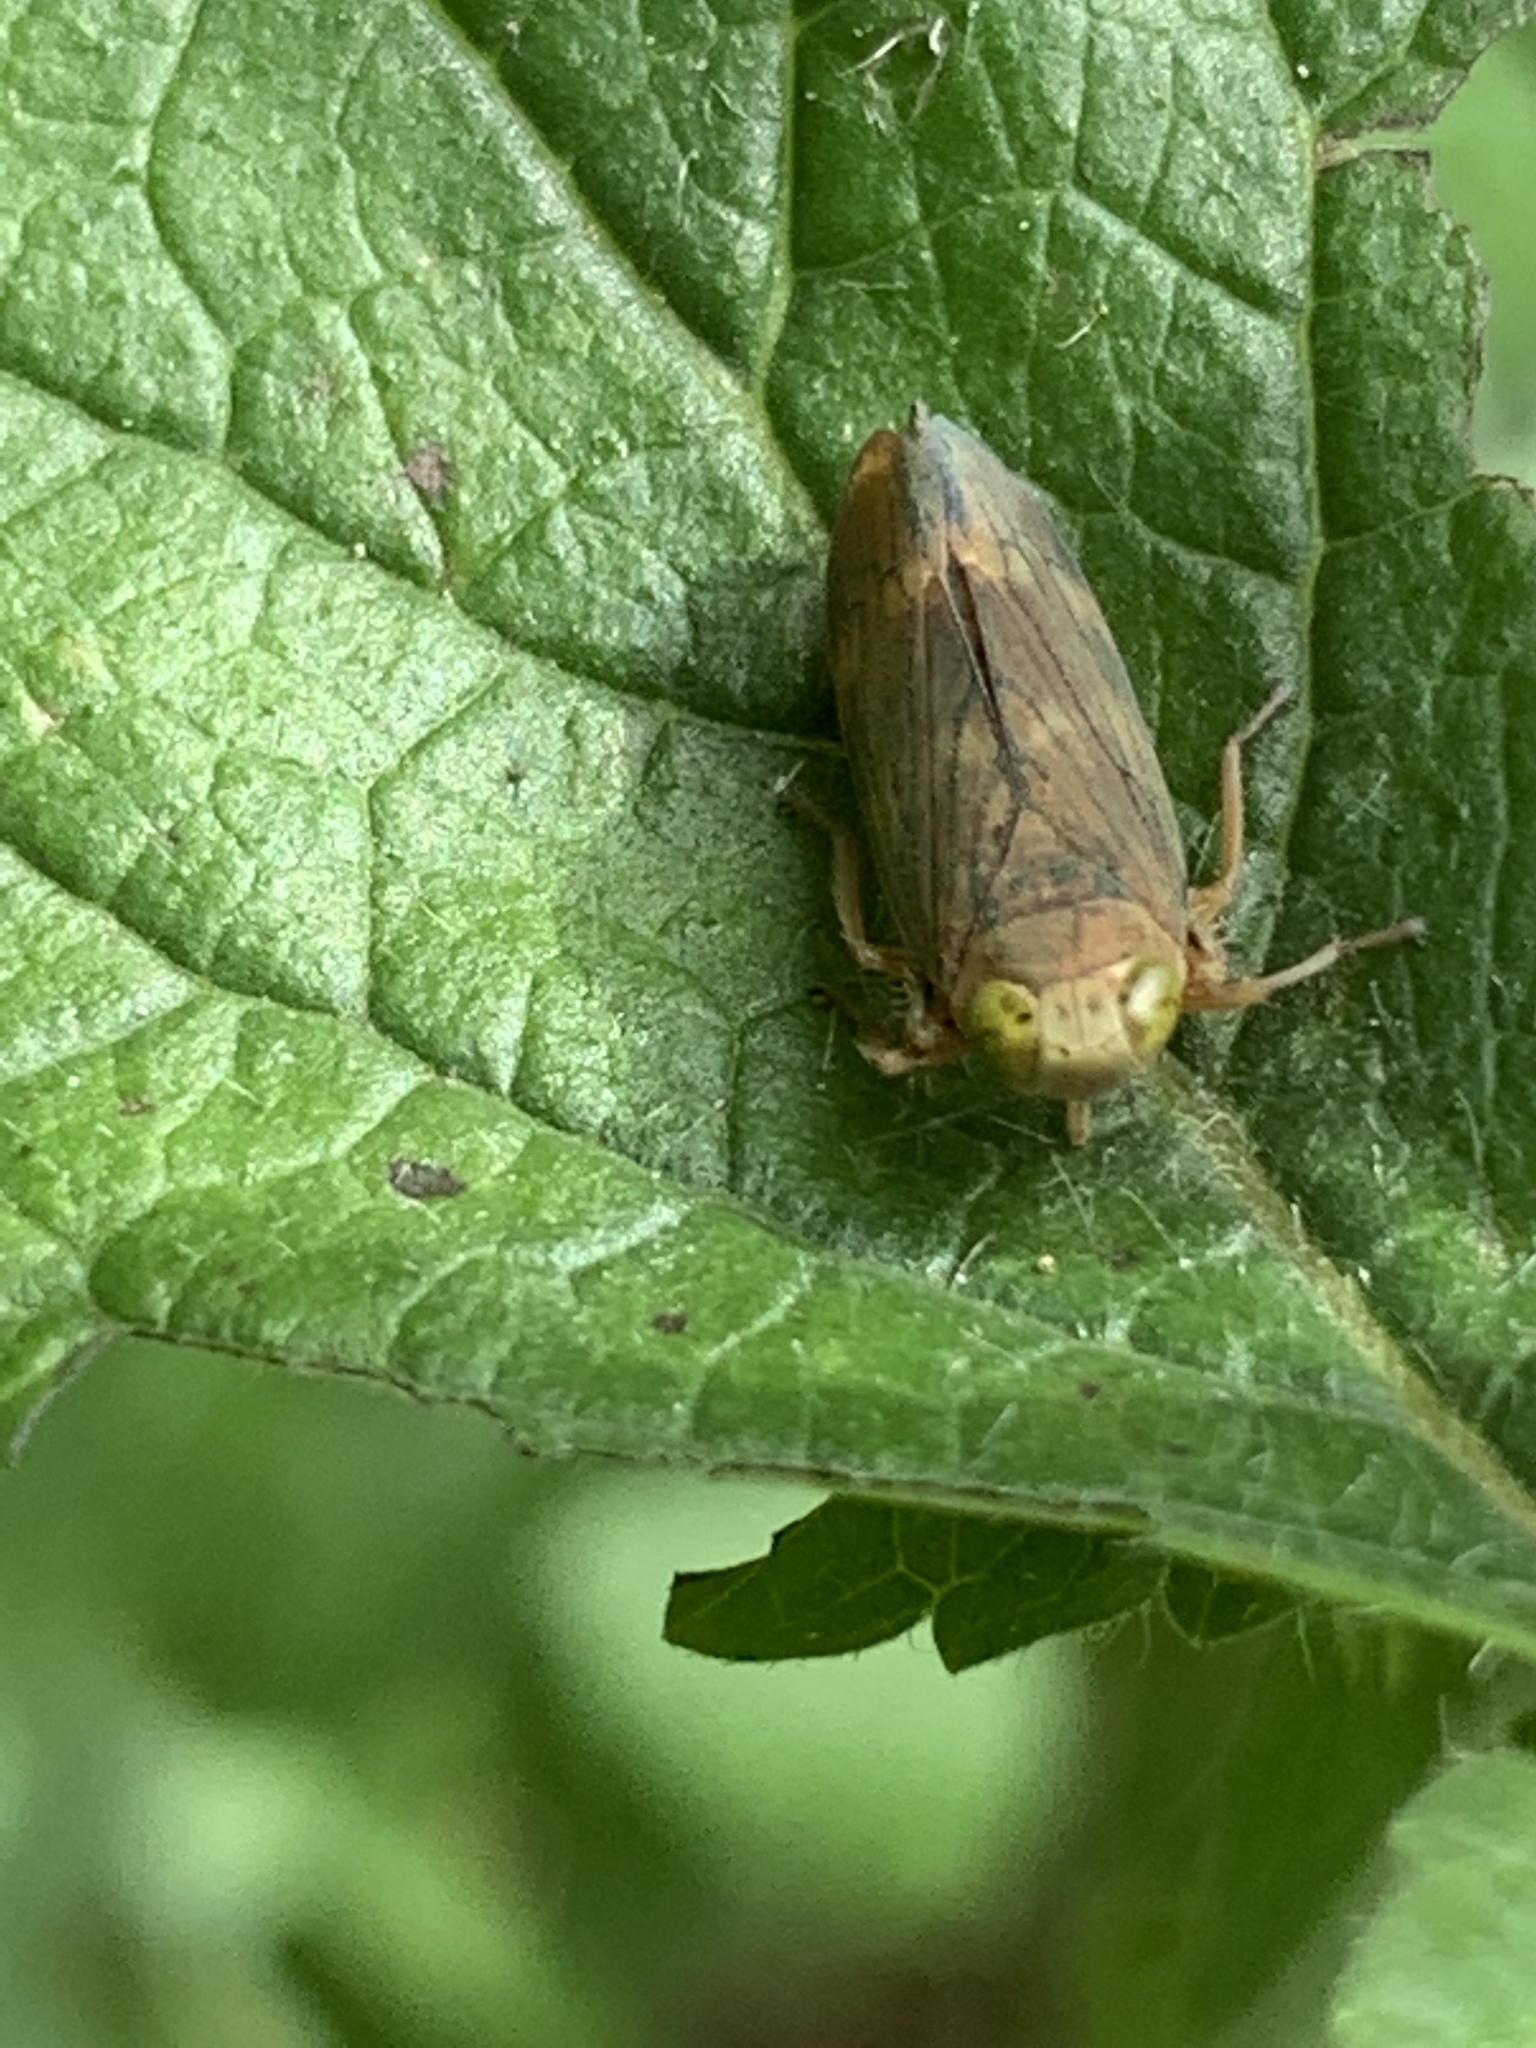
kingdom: Animalia
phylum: Arthropoda
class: Insecta
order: Hemiptera
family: Cicadellidae
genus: Jikradia
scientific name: Jikradia olitoria
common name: Coppery leafhopper
